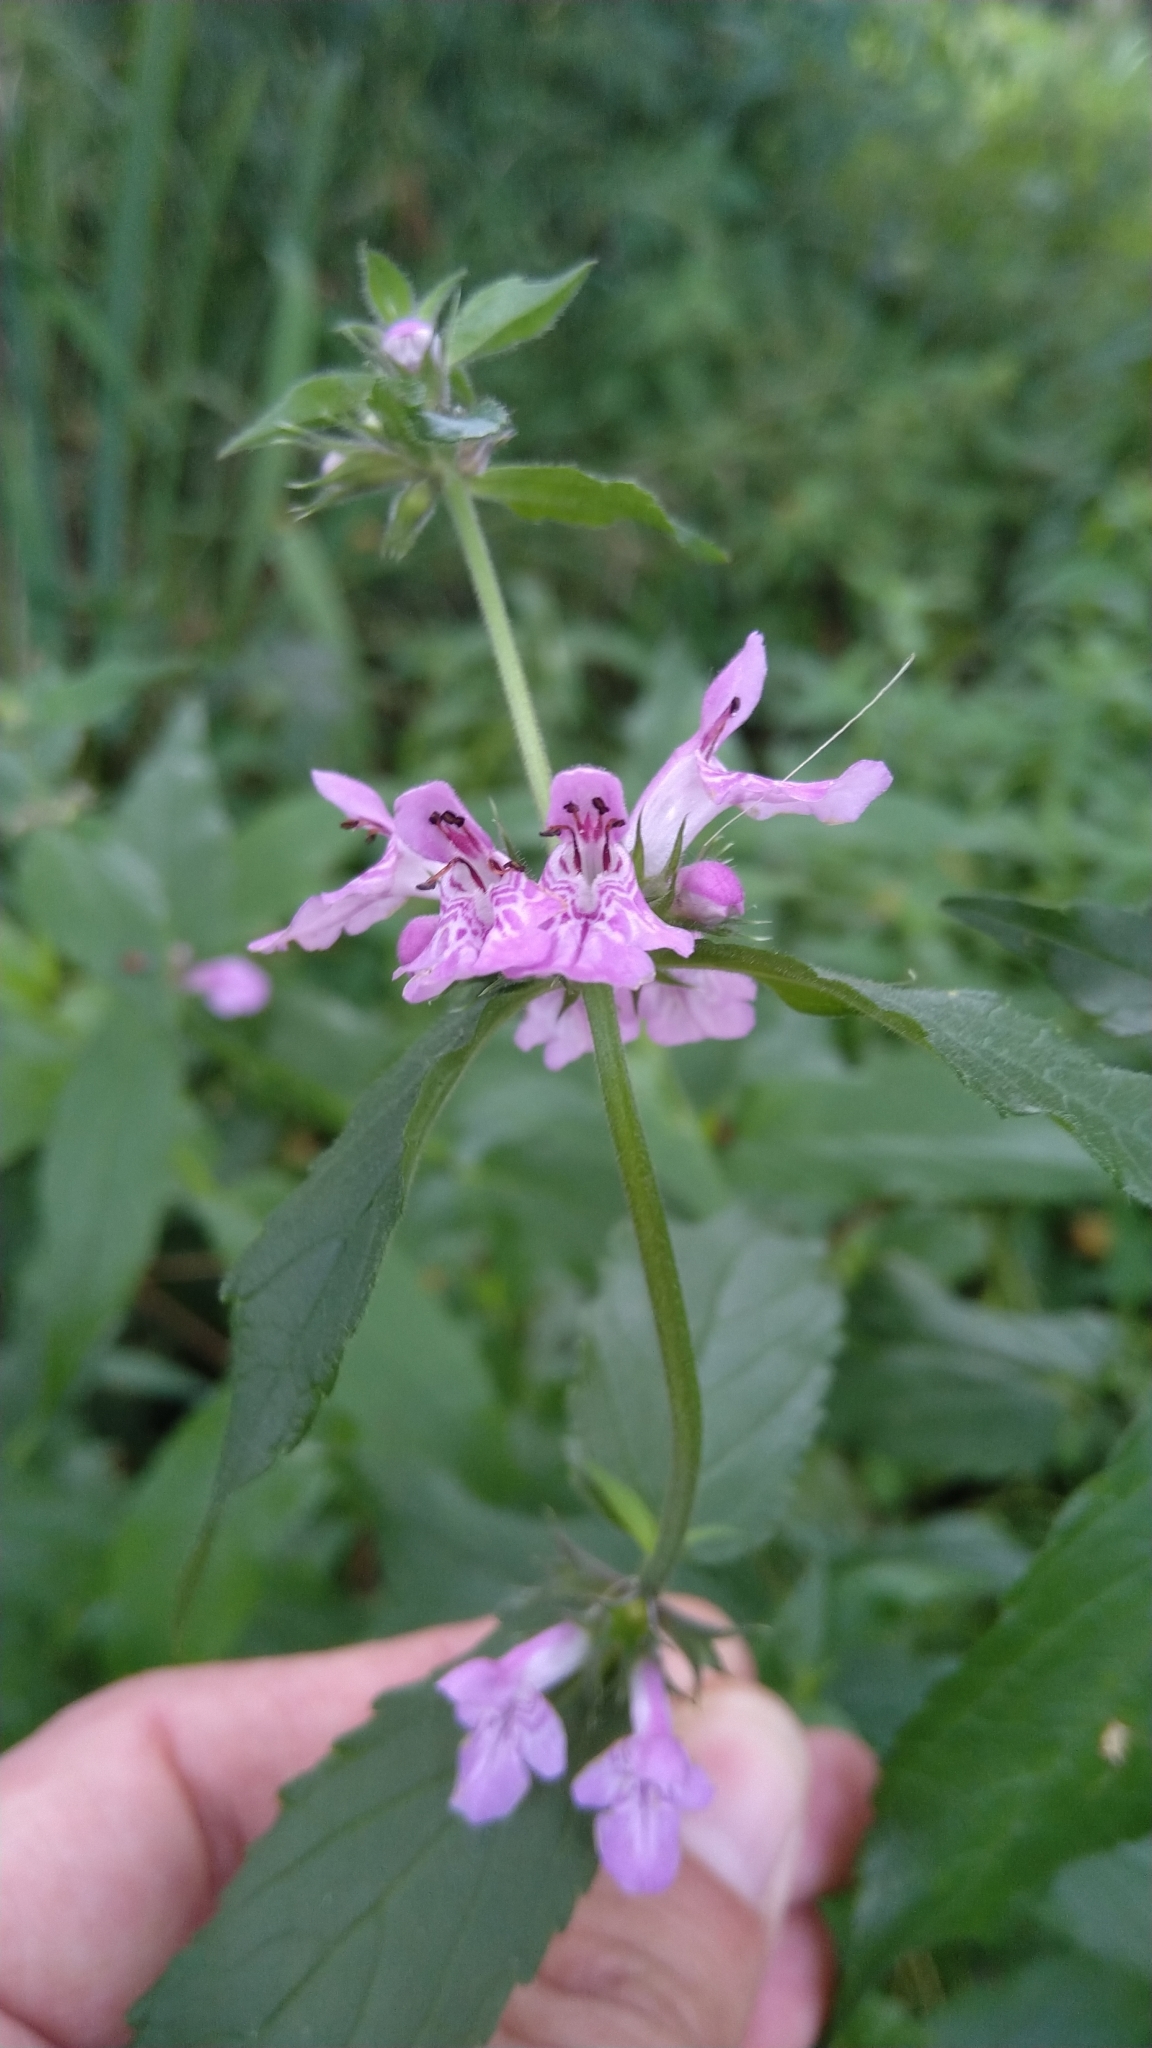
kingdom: Plantae
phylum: Tracheophyta
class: Magnoliopsida
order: Lamiales
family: Lamiaceae
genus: Stachys
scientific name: Stachys palustris
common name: Marsh woundwort
